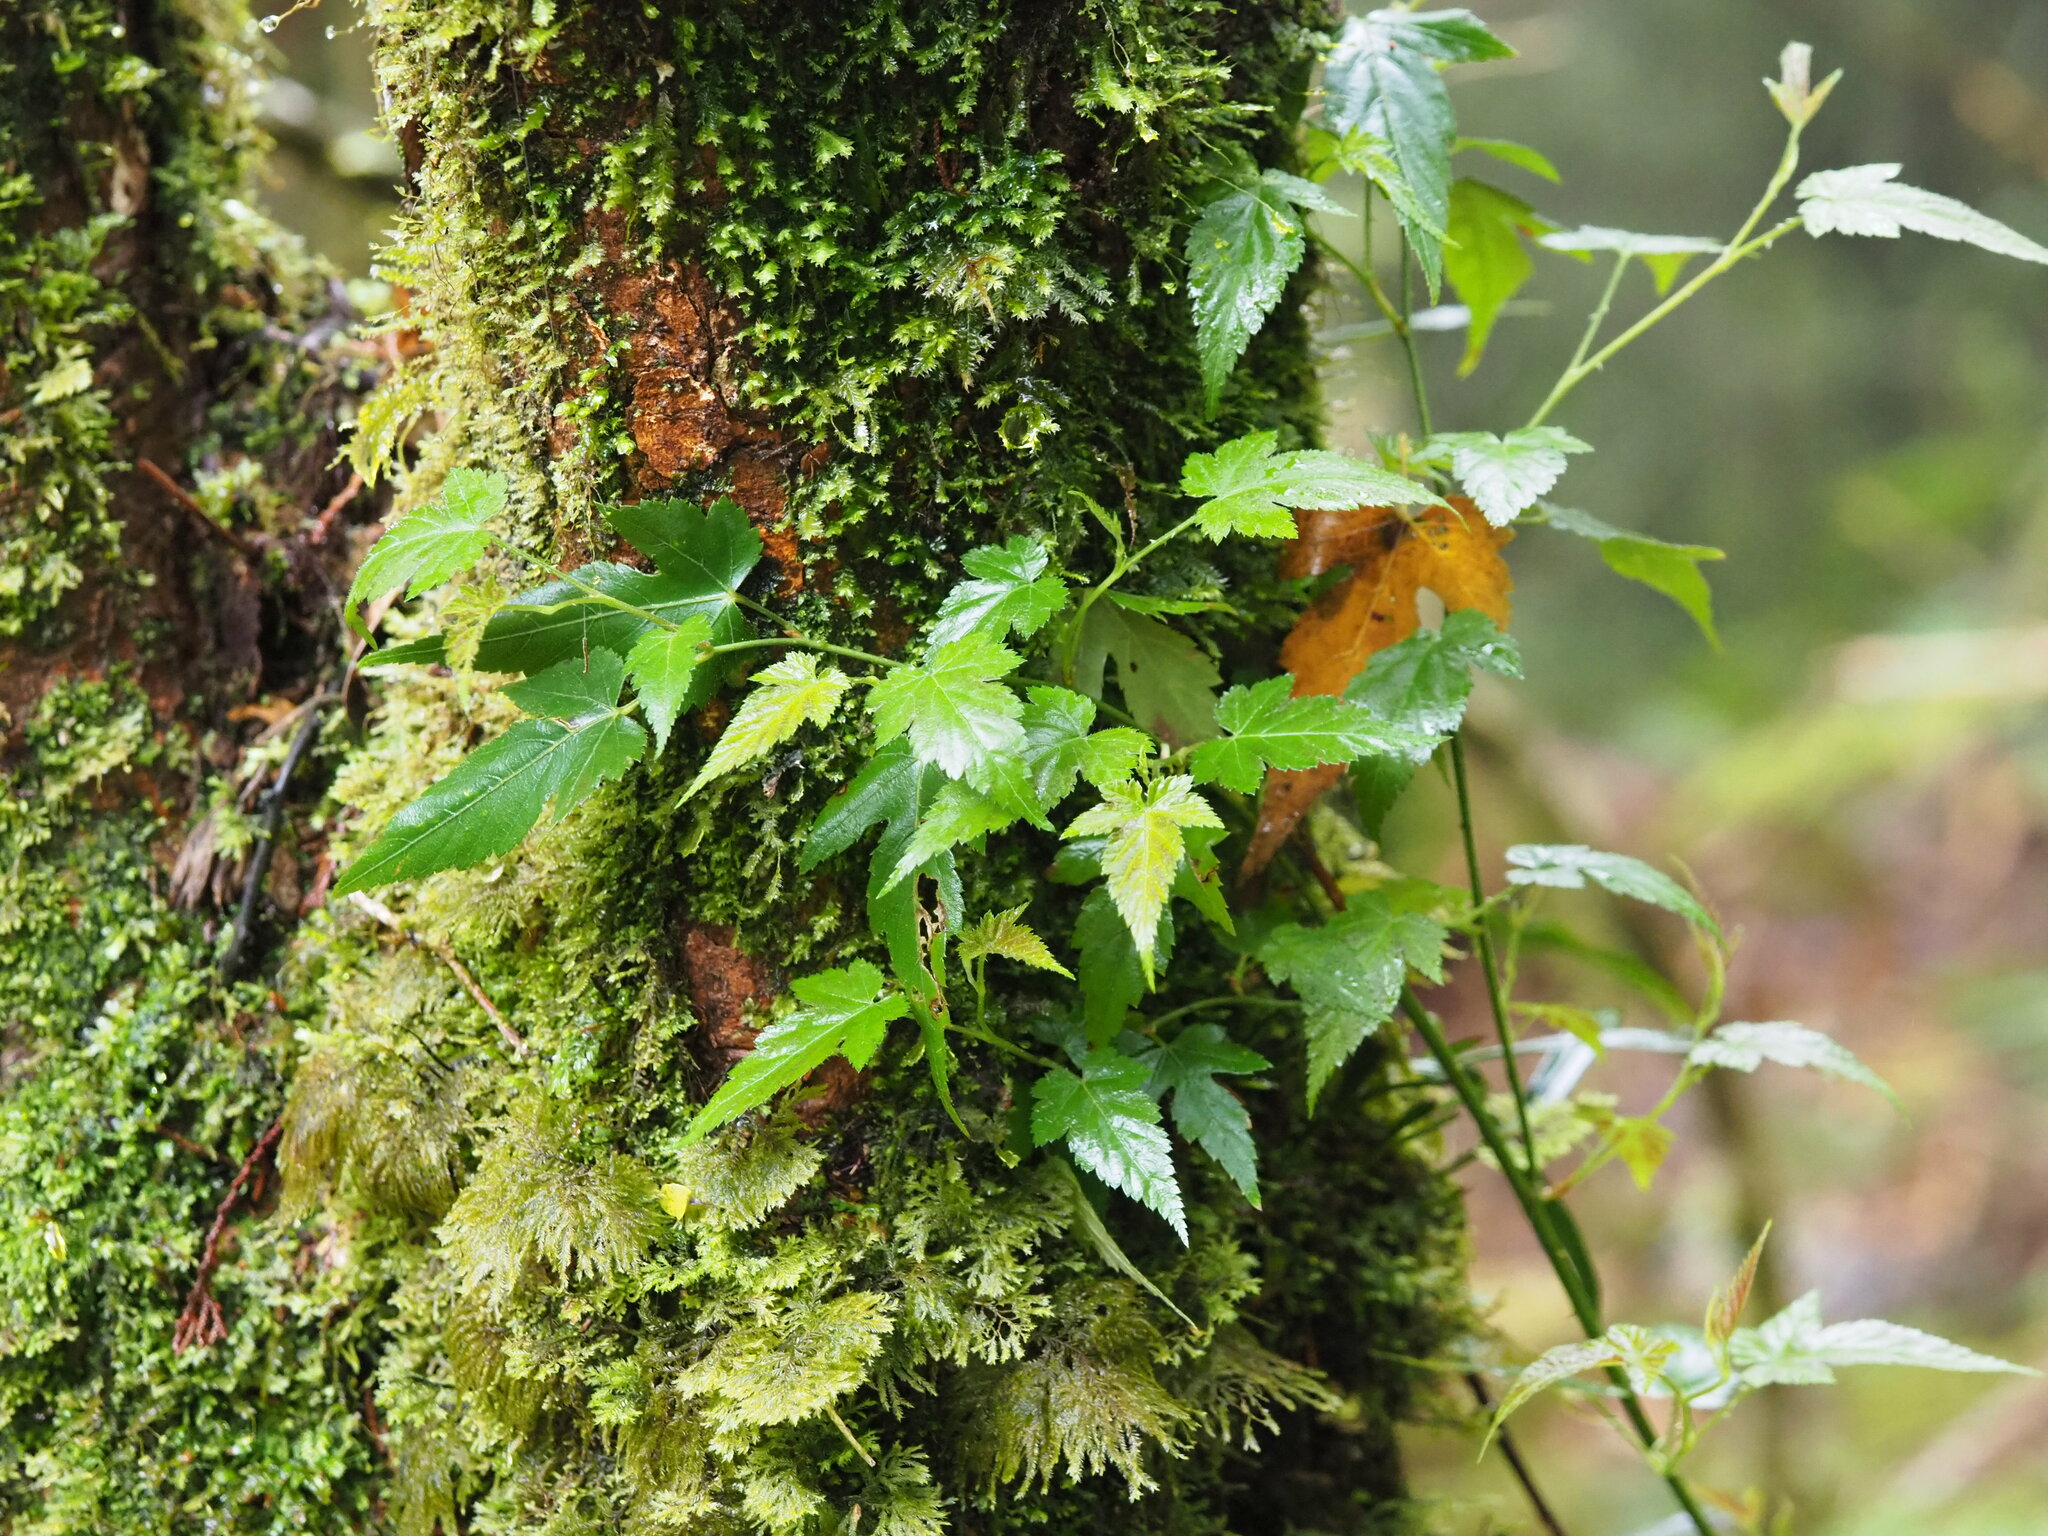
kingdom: Plantae
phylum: Tracheophyta
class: Magnoliopsida
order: Rosales
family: Rosaceae
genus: Rubus
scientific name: Rubus corchorifolius
